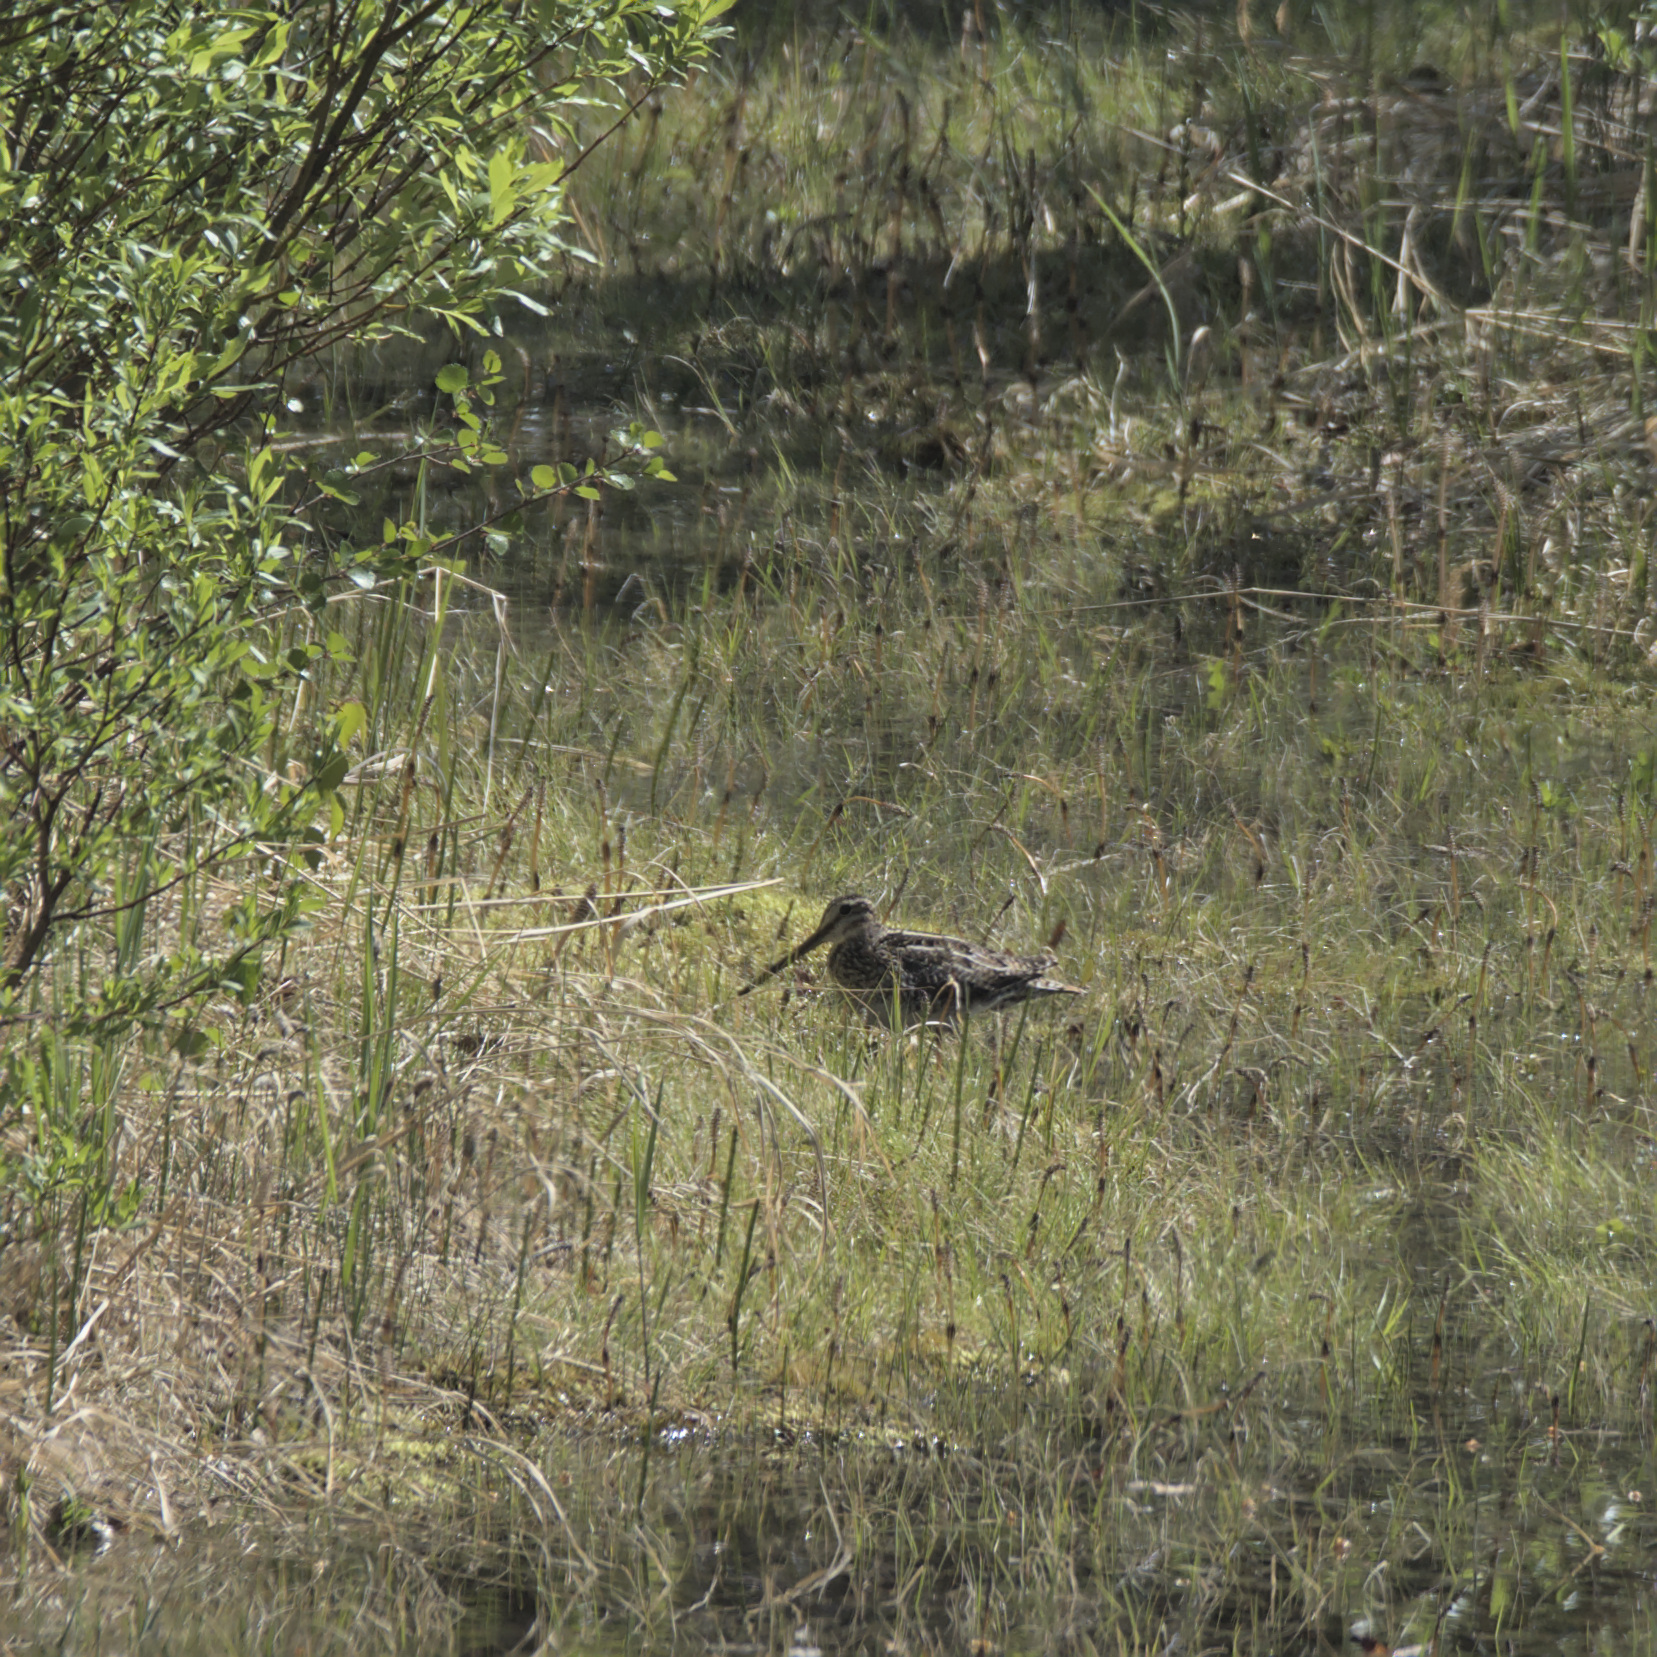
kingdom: Animalia
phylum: Chordata
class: Aves
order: Charadriiformes
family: Scolopacidae
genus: Gallinago
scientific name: Gallinago delicata
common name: Wilson's snipe
